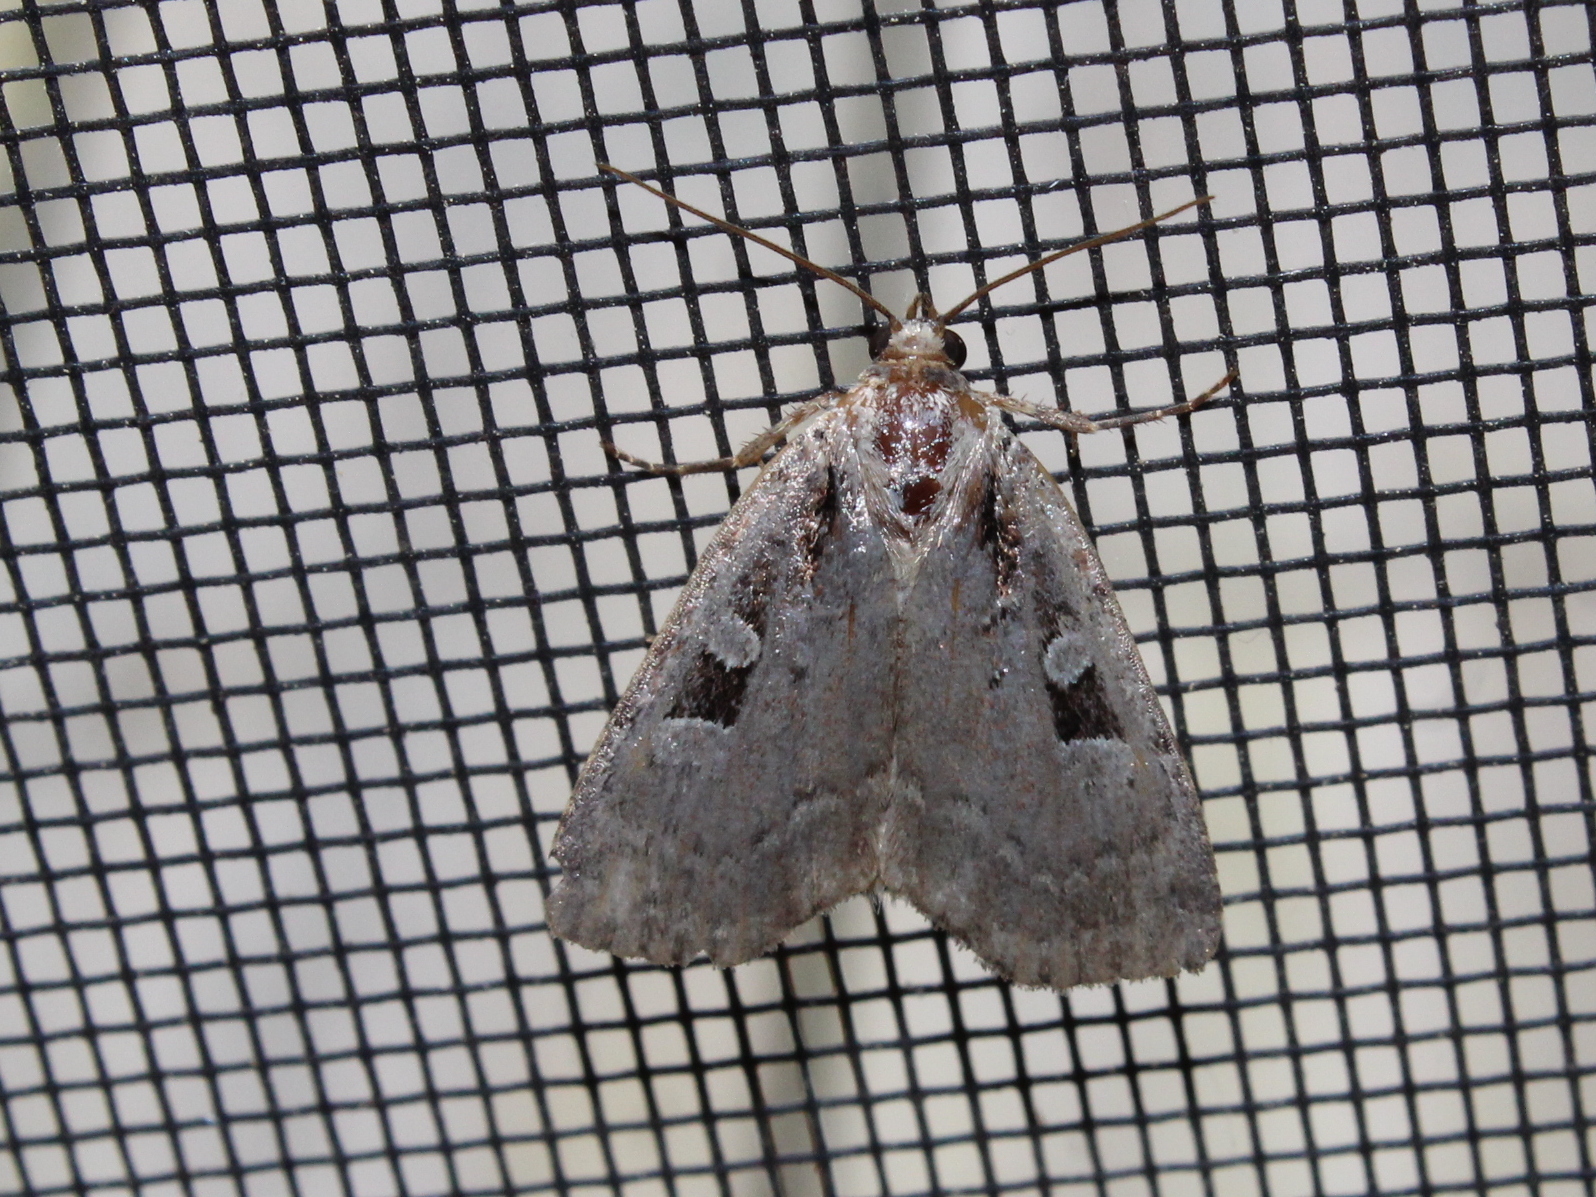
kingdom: Animalia
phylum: Arthropoda
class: Insecta
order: Lepidoptera
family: Noctuidae
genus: Eueretagrotis
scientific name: Eueretagrotis perattentus
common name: Two-spot dart moth
